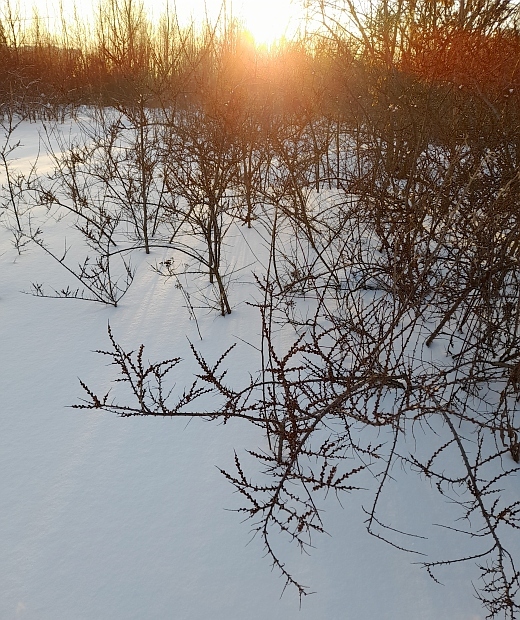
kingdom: Plantae
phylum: Tracheophyta
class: Magnoliopsida
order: Rosales
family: Elaeagnaceae
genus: Hippophae
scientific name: Hippophae rhamnoides
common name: Sea-buckthorn
